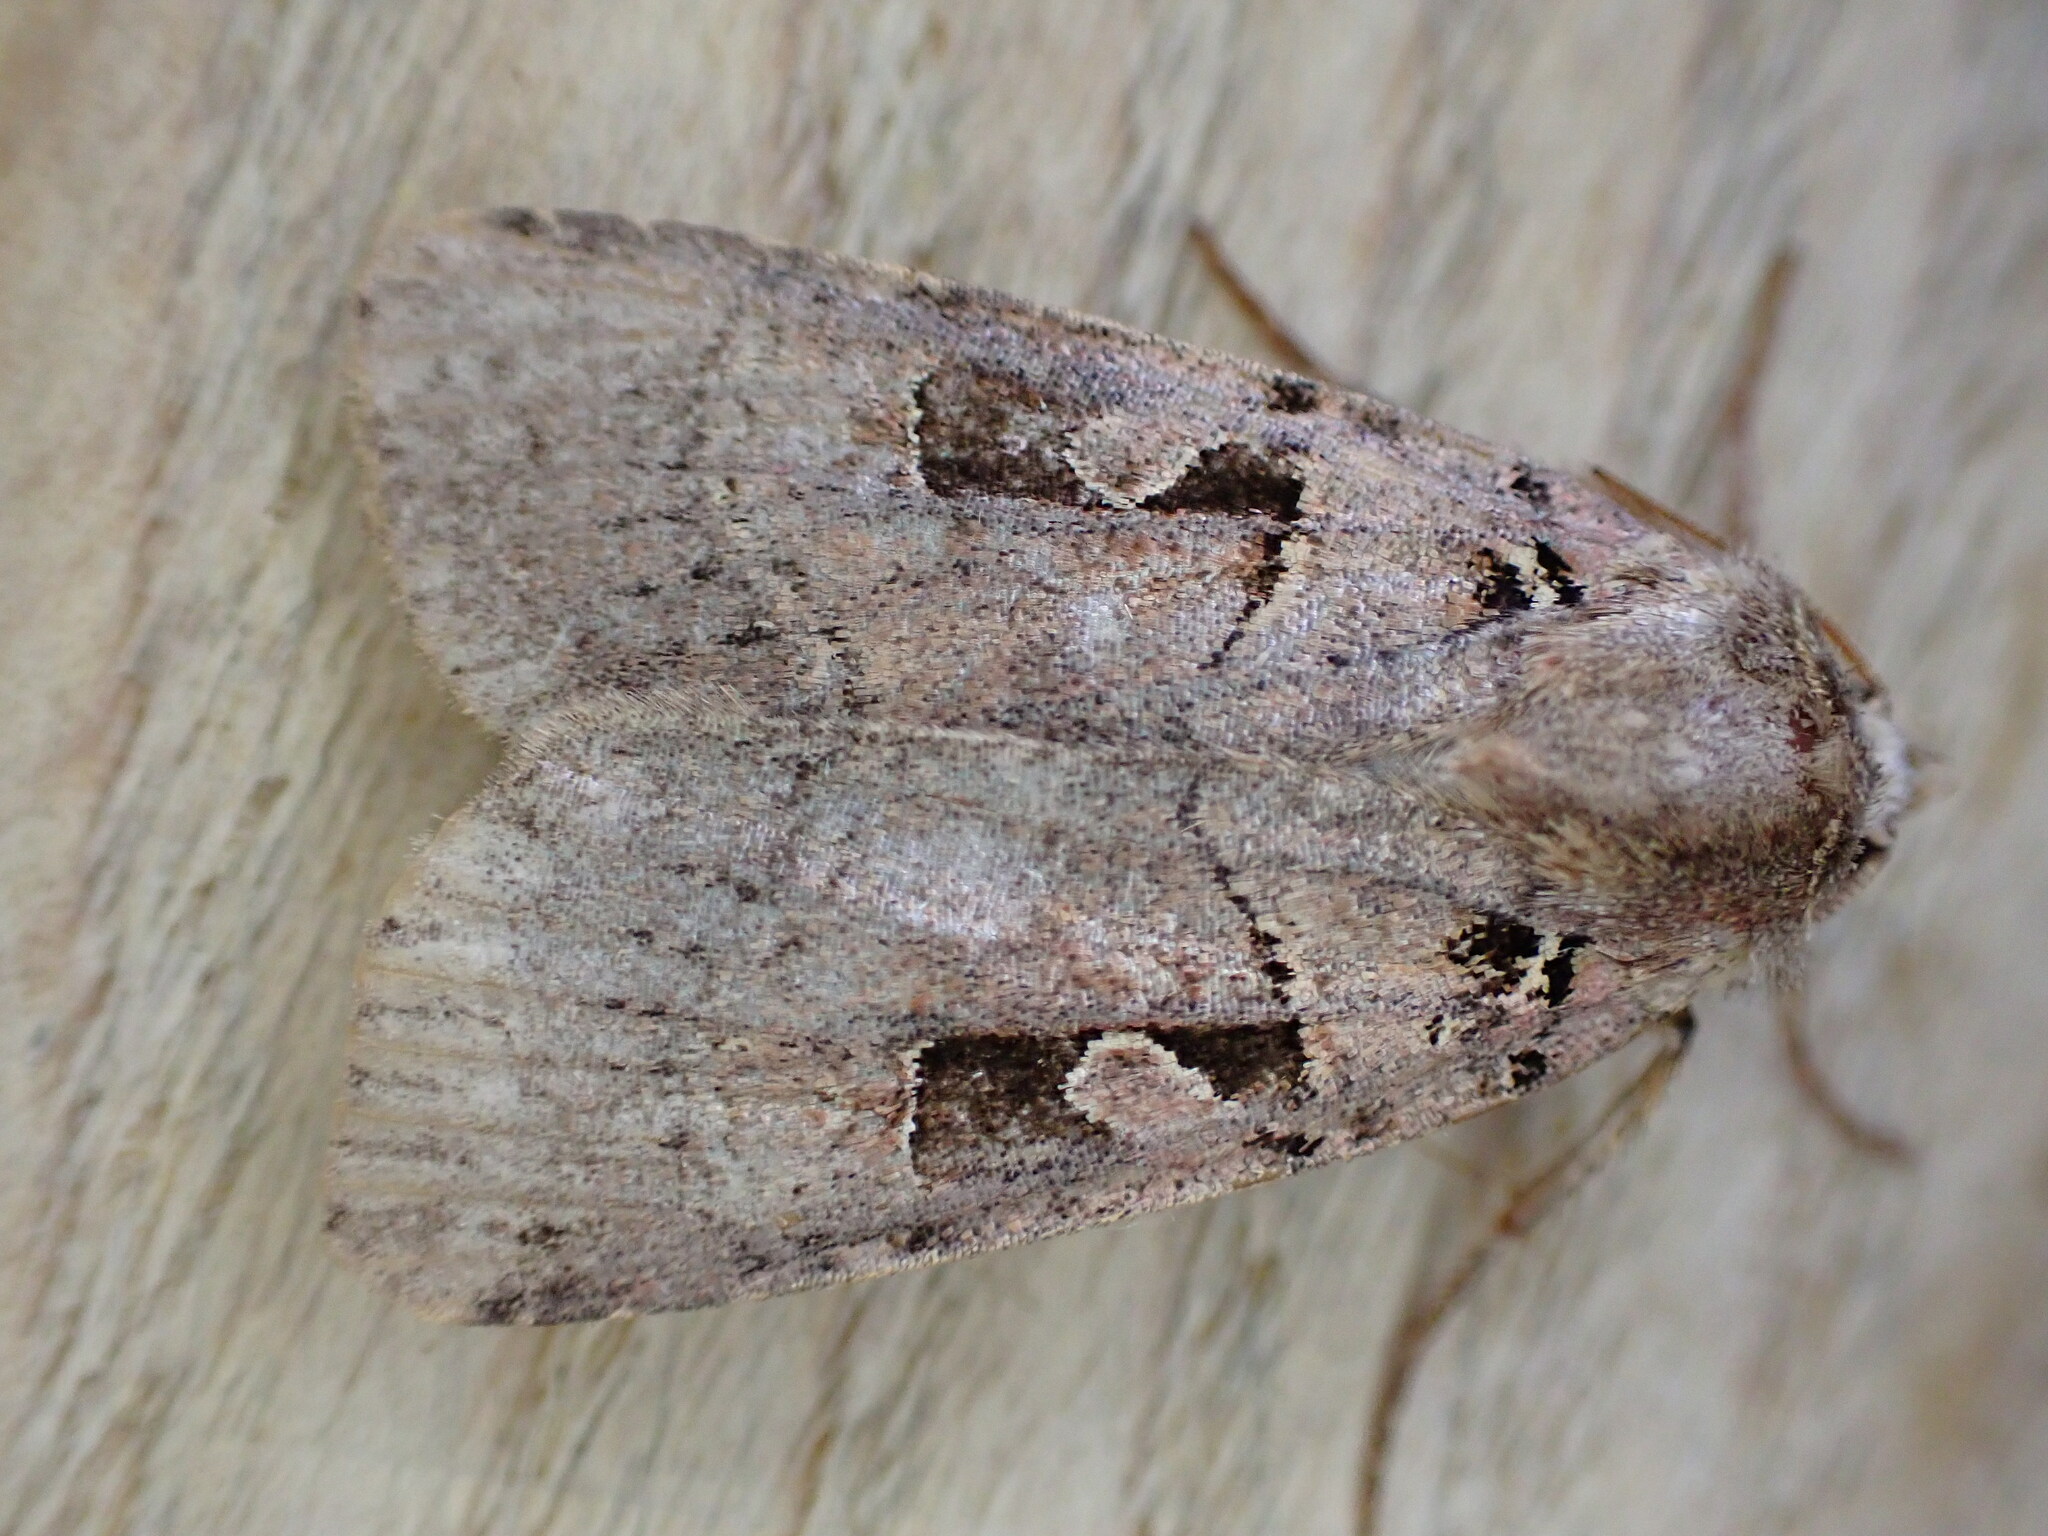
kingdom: Animalia
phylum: Arthropoda
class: Insecta
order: Lepidoptera
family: Noctuidae
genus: Xestia
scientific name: Xestia triangulum
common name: Double square-spot
